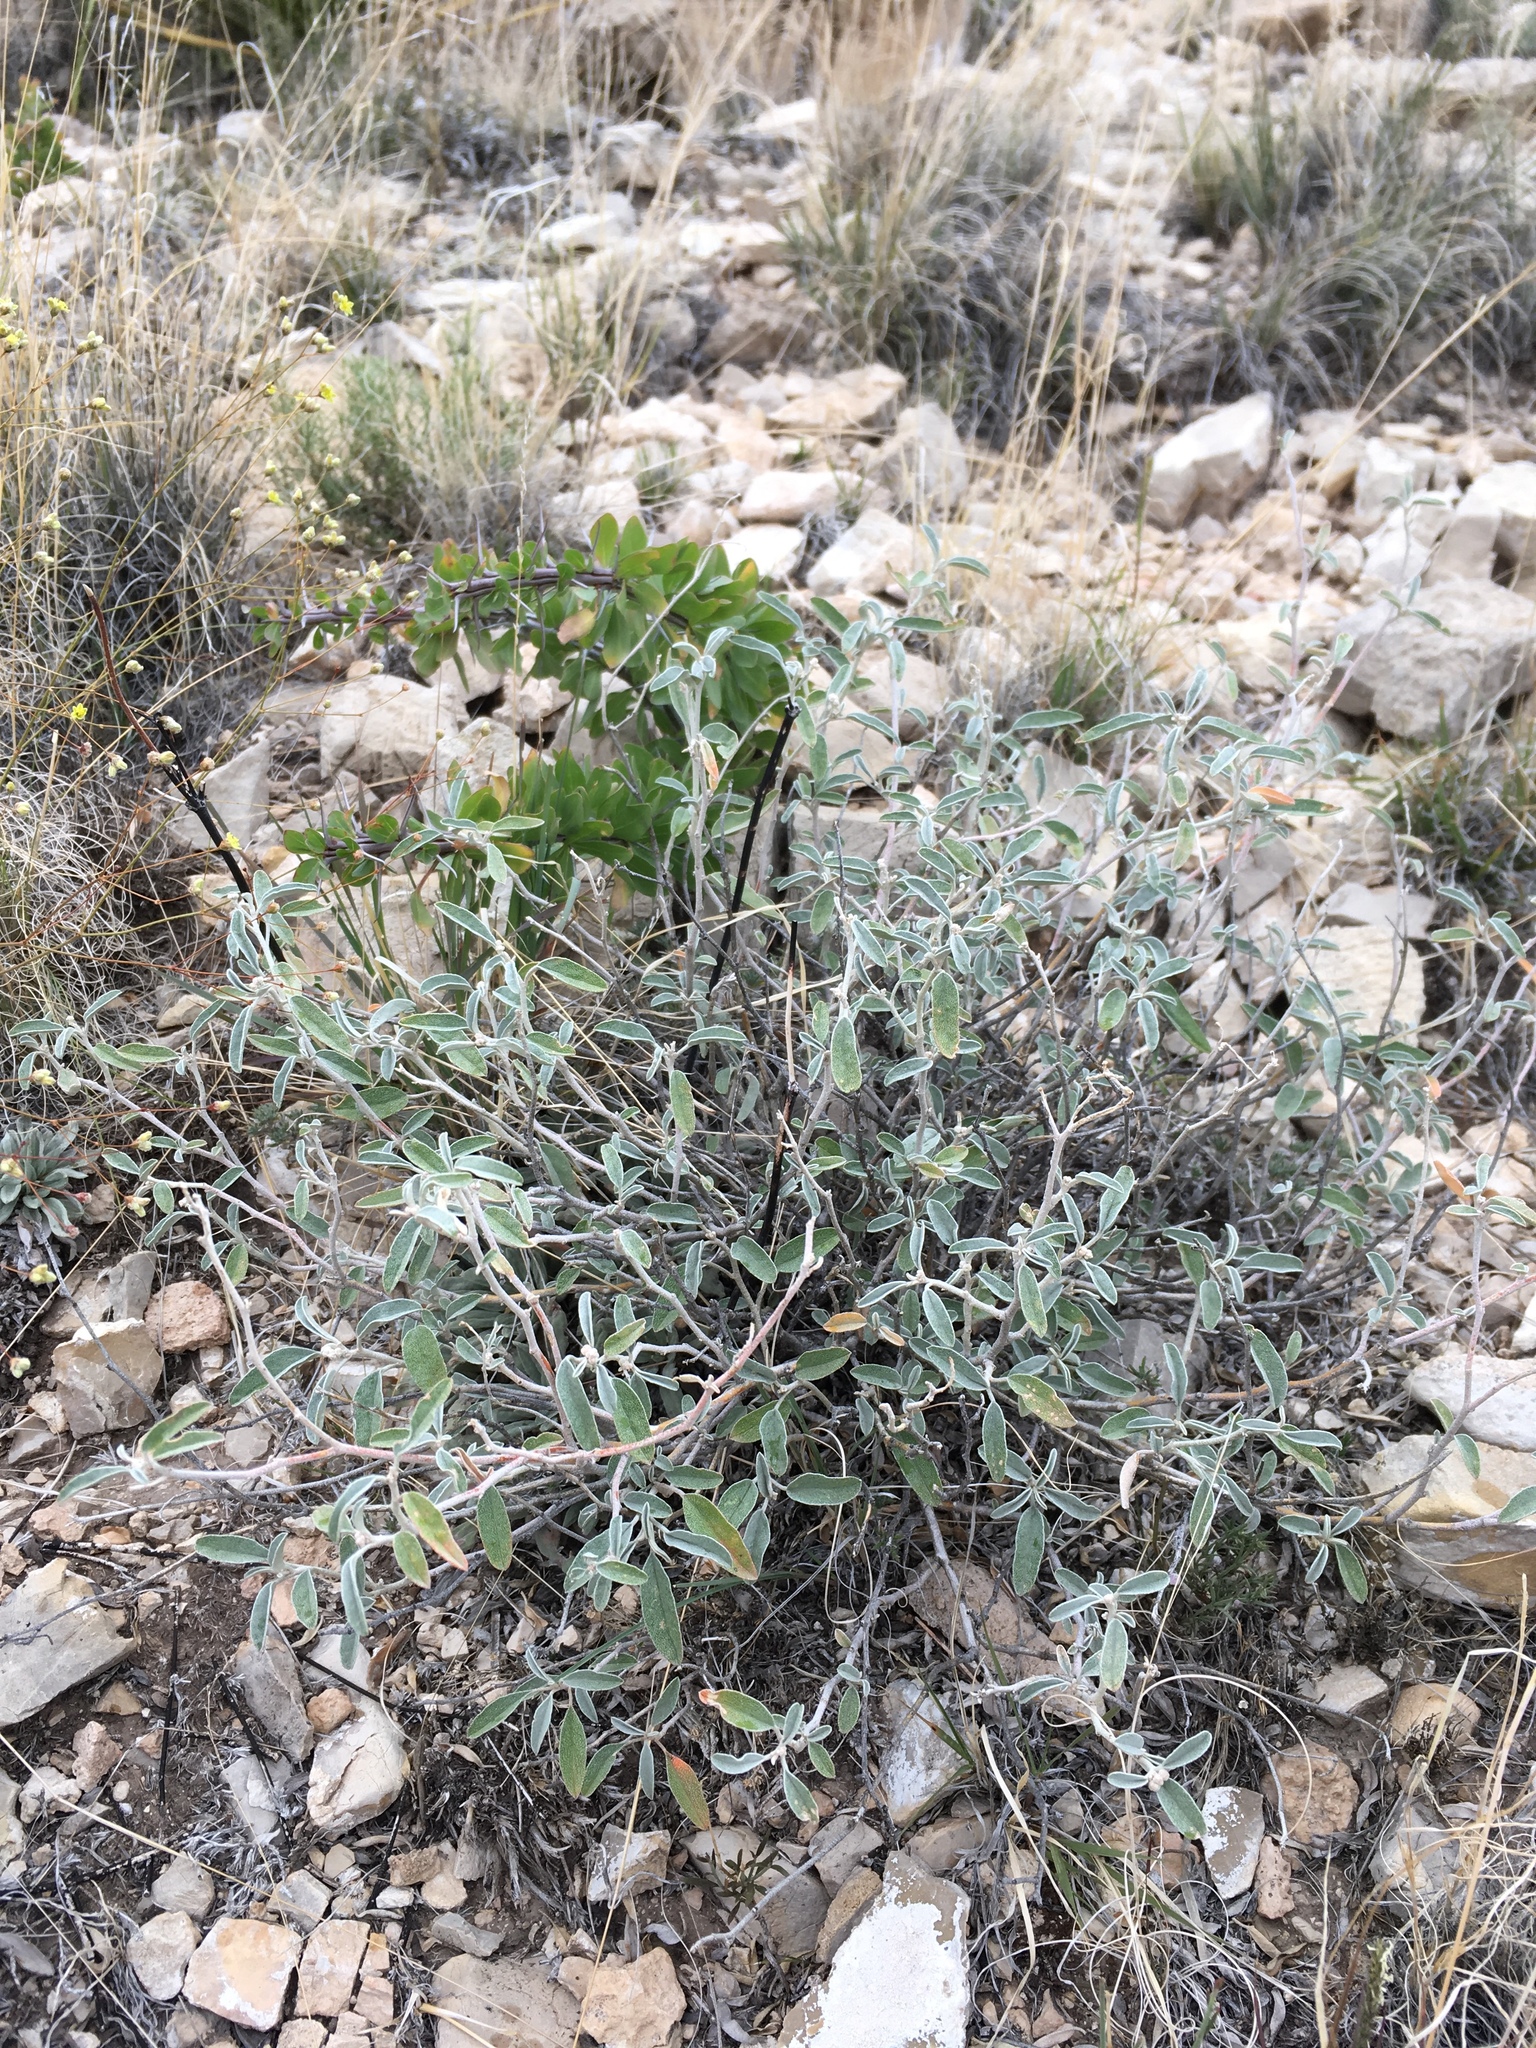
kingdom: Plantae
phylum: Tracheophyta
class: Magnoliopsida
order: Malpighiales
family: Euphorbiaceae
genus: Croton
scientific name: Croton dioicus
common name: Grassland croton
